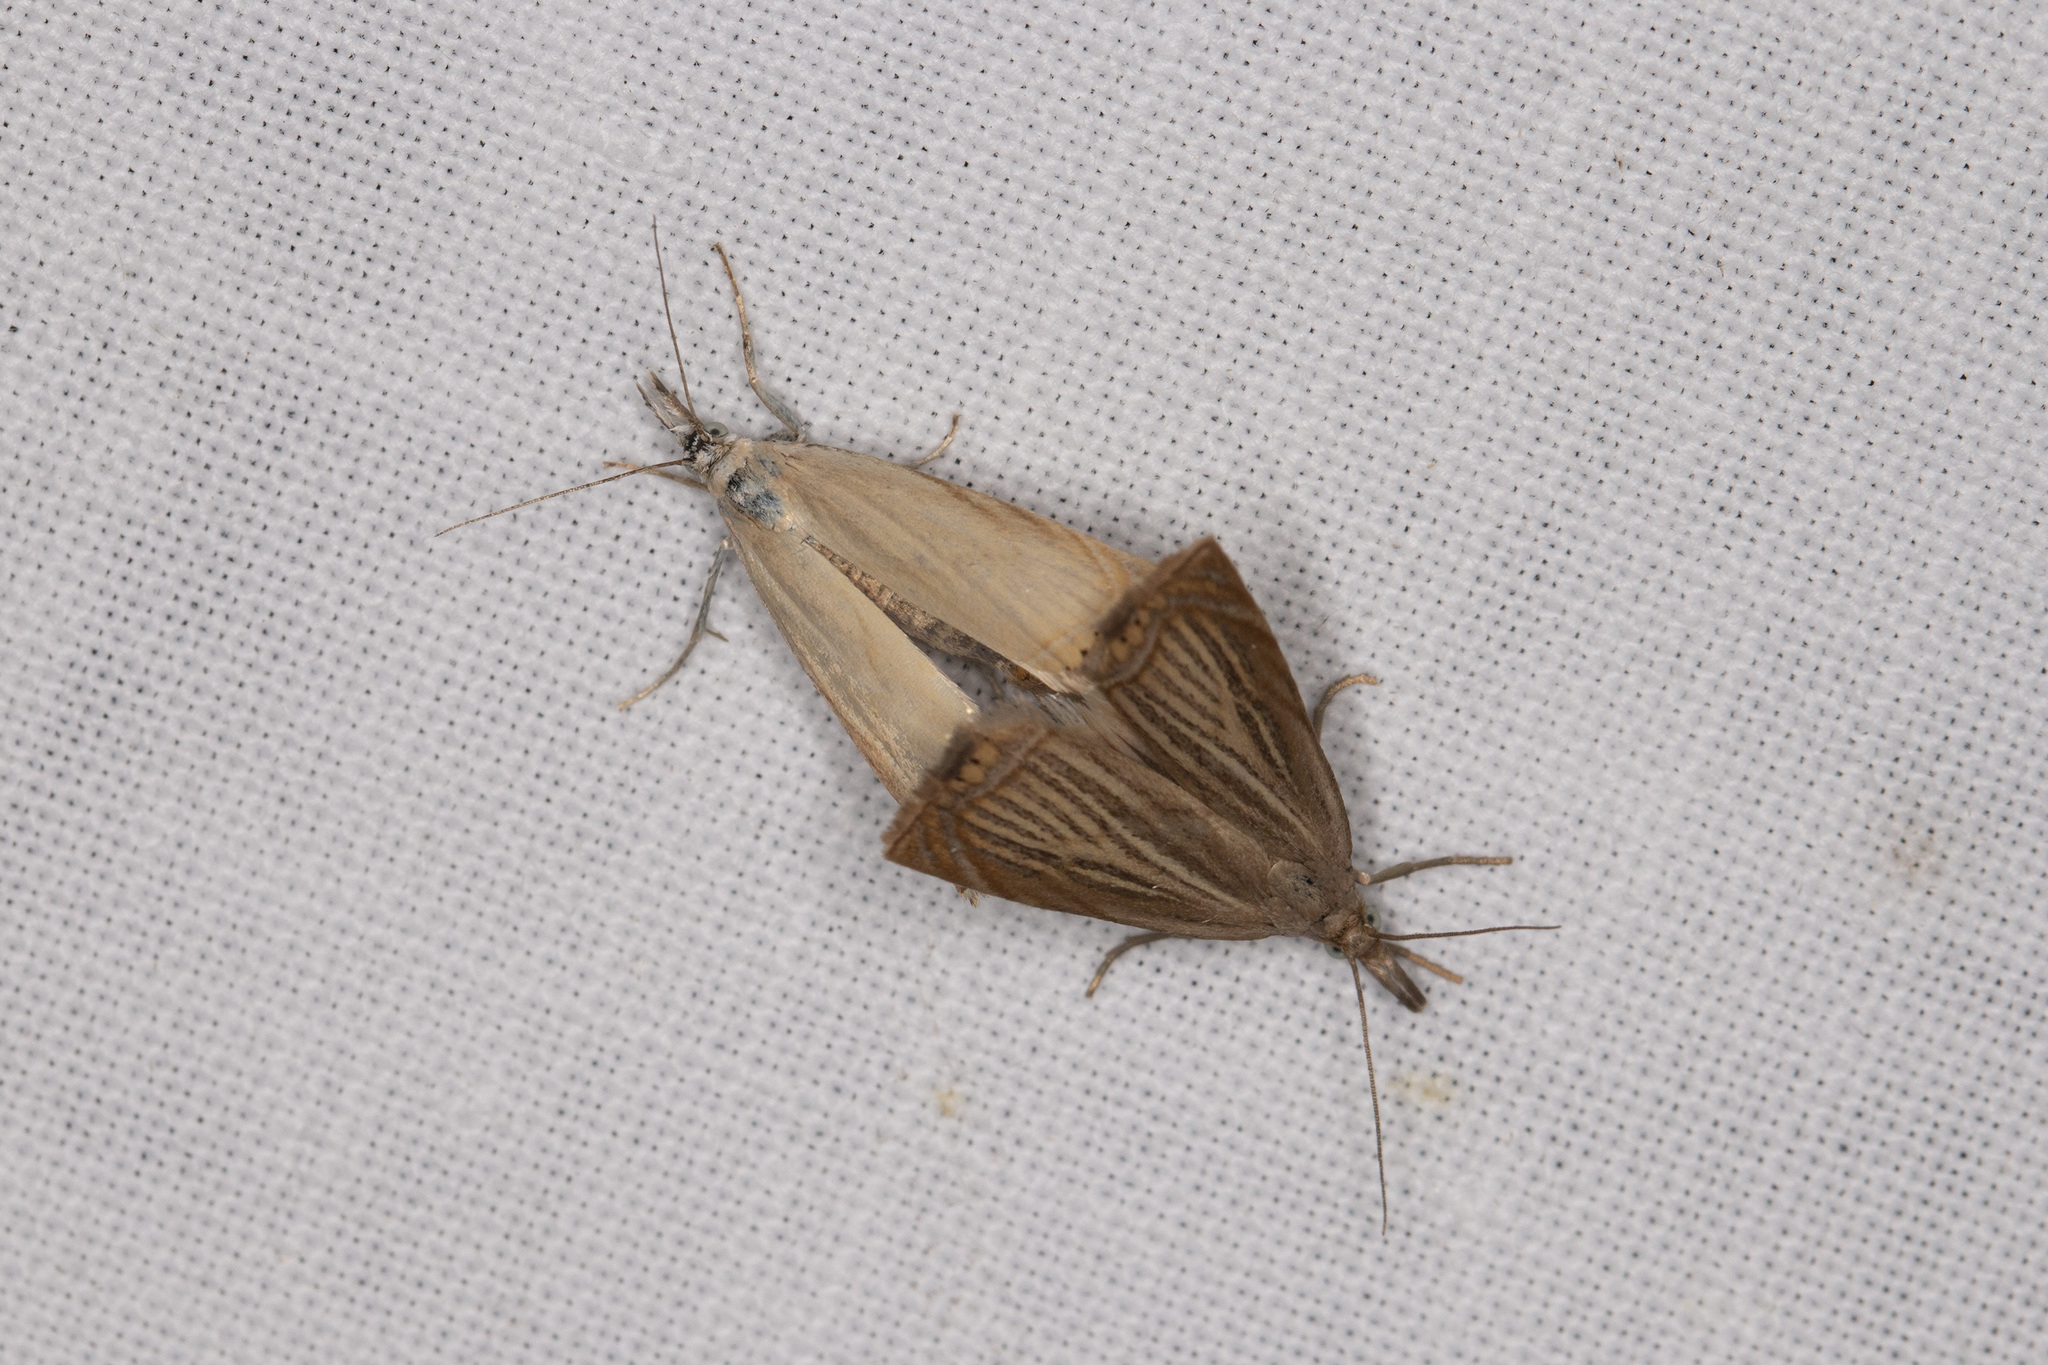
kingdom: Animalia
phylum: Arthropoda
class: Insecta
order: Lepidoptera
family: Crambidae
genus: Chrysoteuchia
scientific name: Chrysoteuchia culmella
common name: Garden grass-veneer
